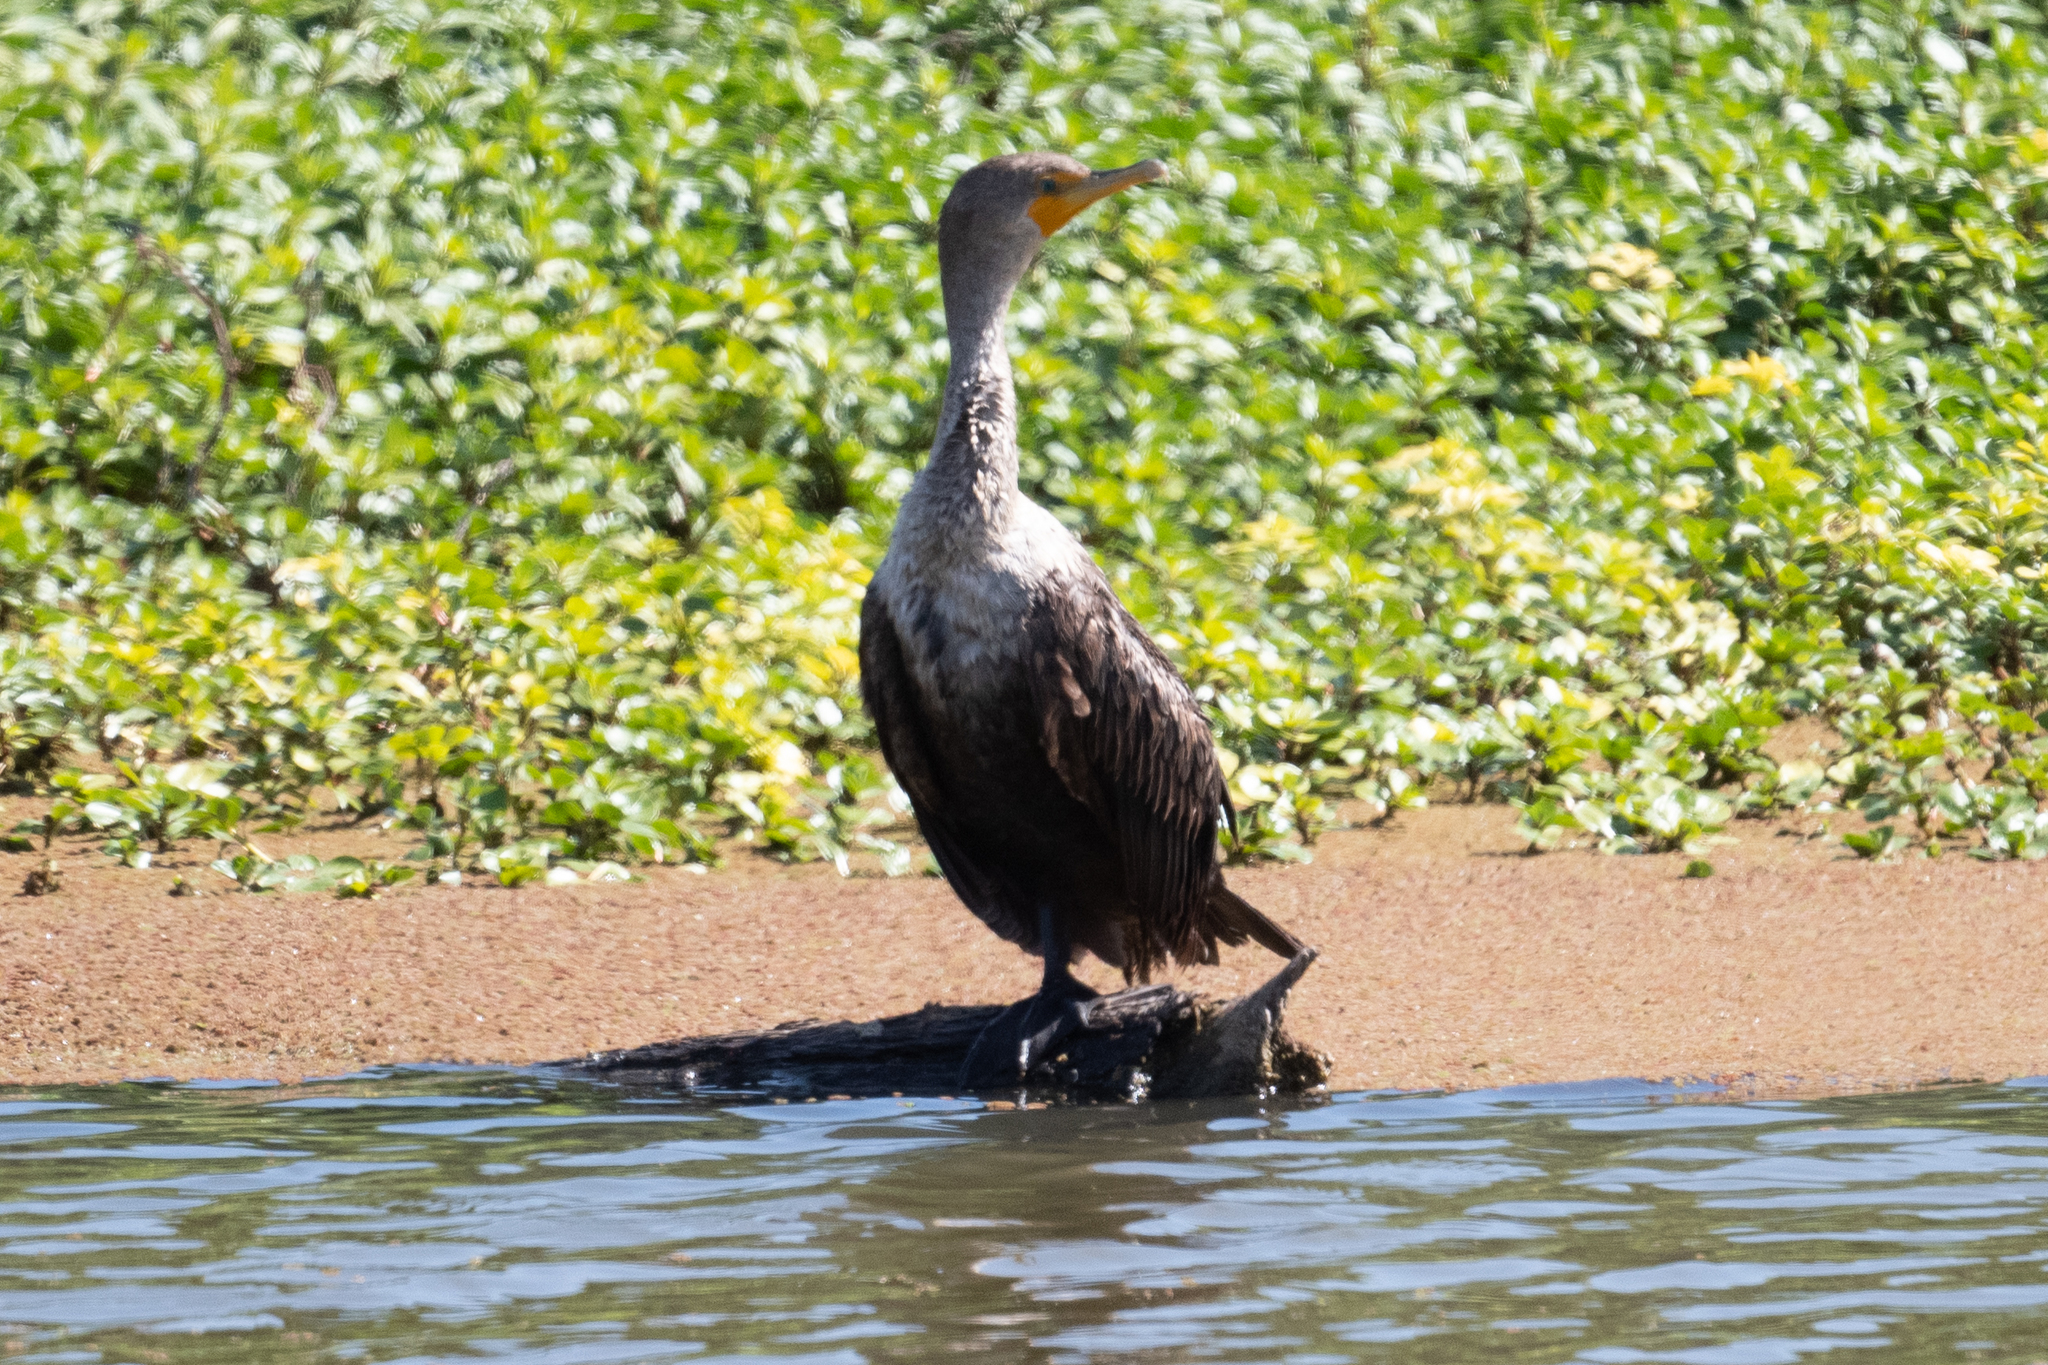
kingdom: Animalia
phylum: Chordata
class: Aves
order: Suliformes
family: Phalacrocoracidae
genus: Phalacrocorax
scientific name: Phalacrocorax auritus
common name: Double-crested cormorant
